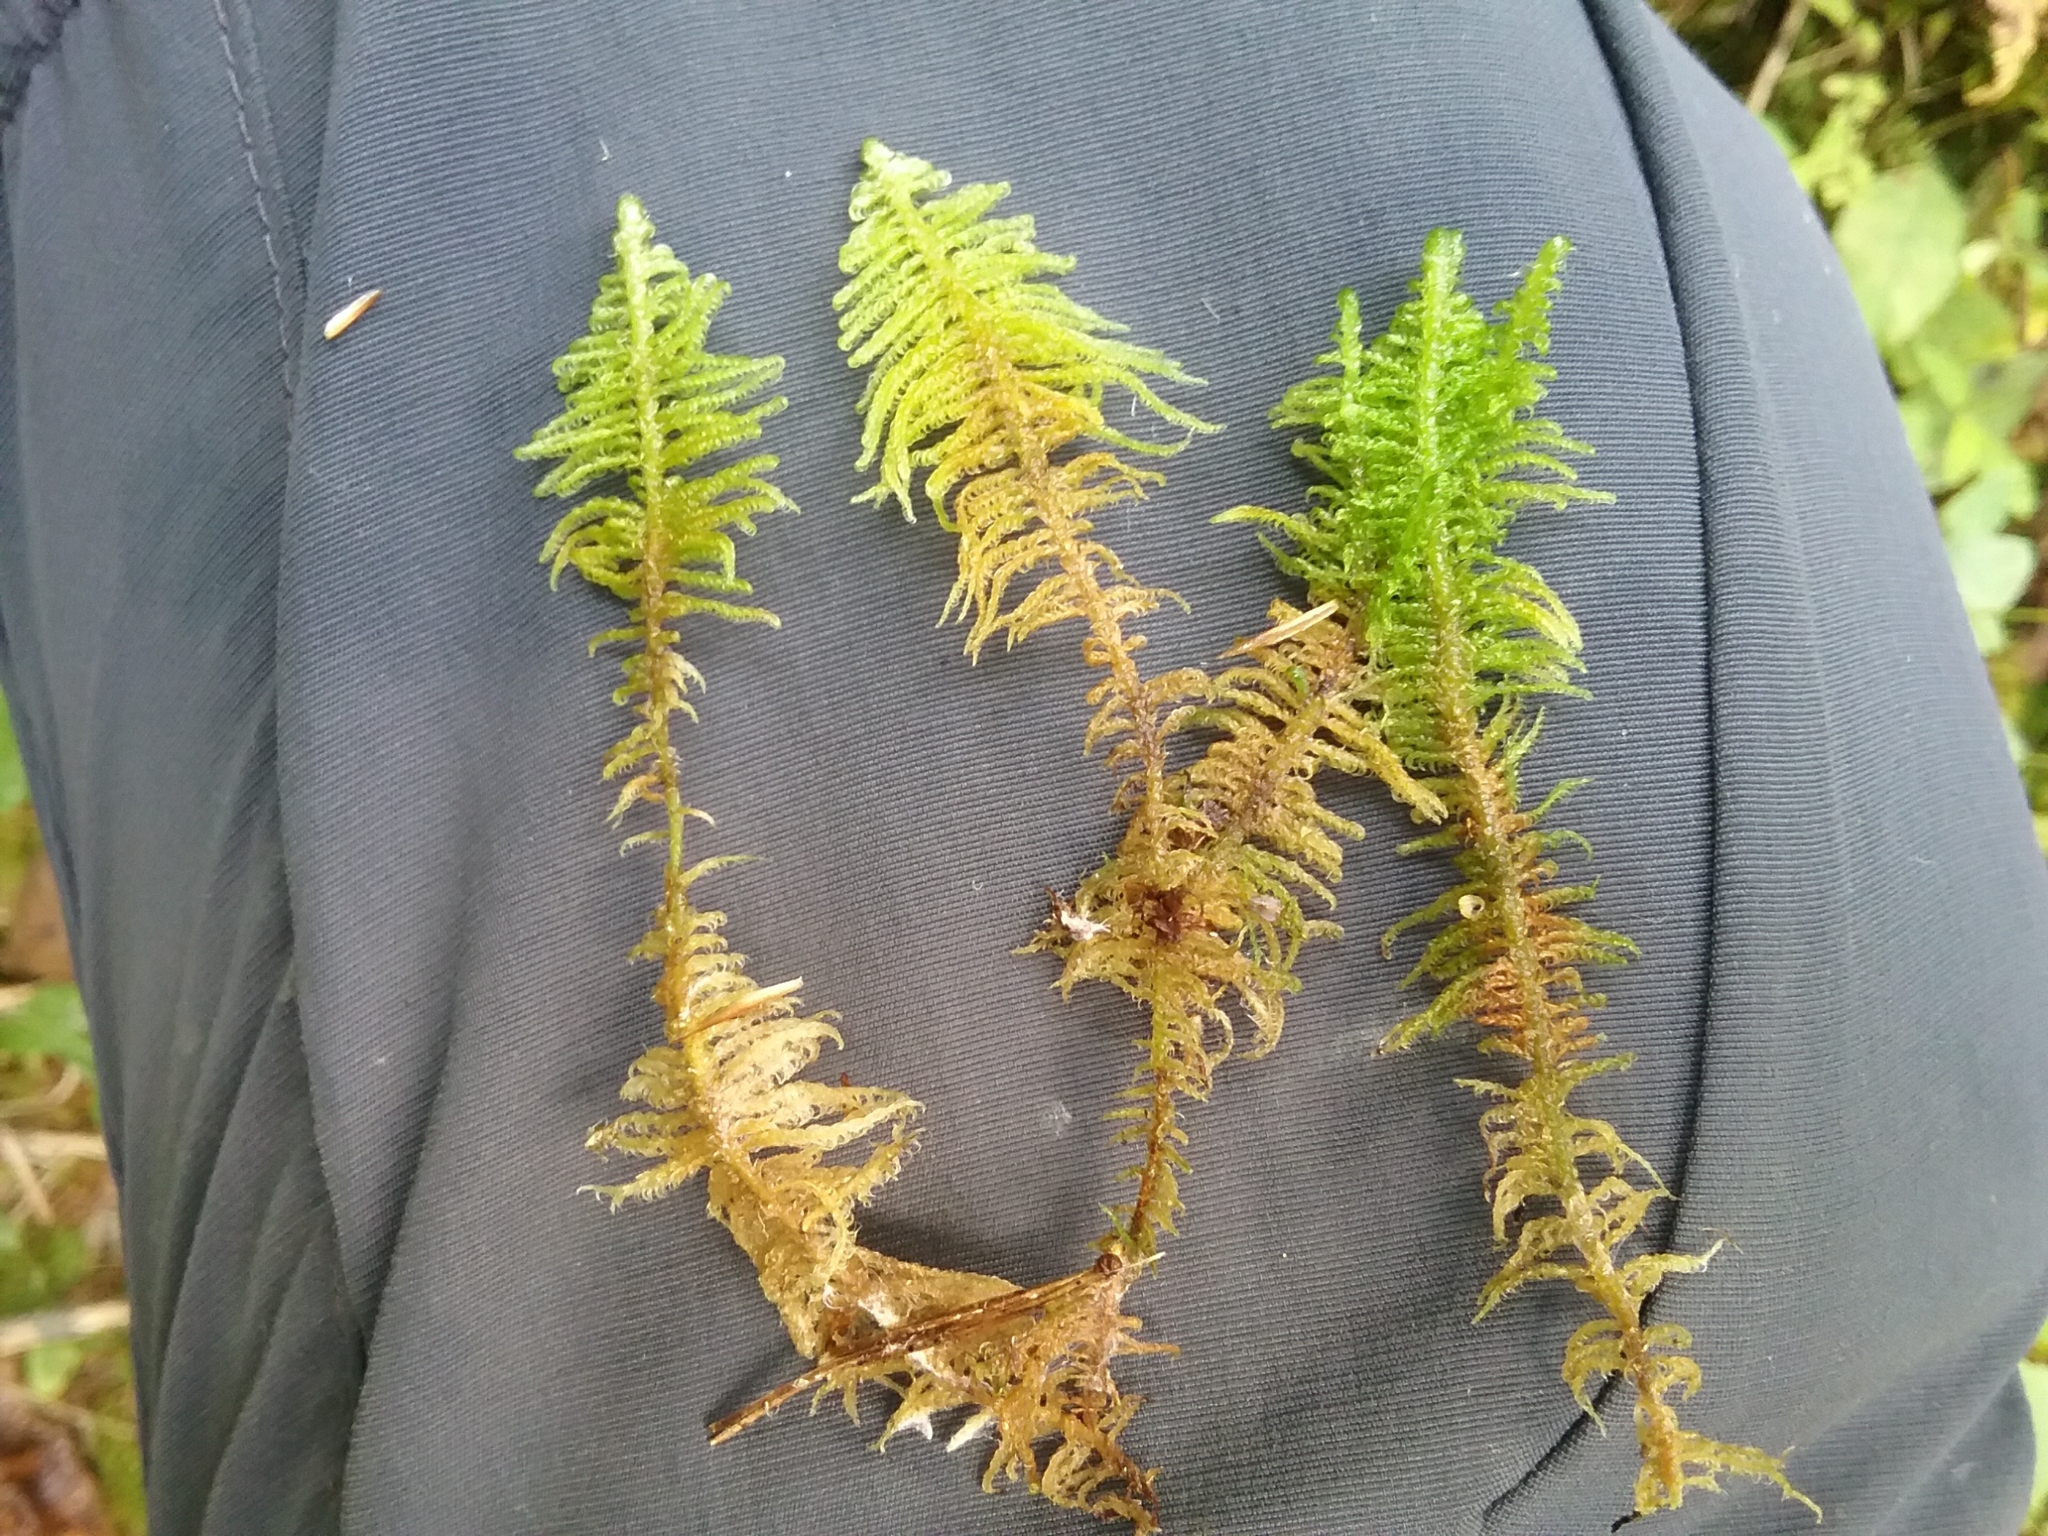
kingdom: Plantae
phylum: Bryophyta
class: Bryopsida
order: Hypnales
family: Pylaisiaceae
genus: Ptilium
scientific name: Ptilium crista-castrensis
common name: Knight's plume moss
